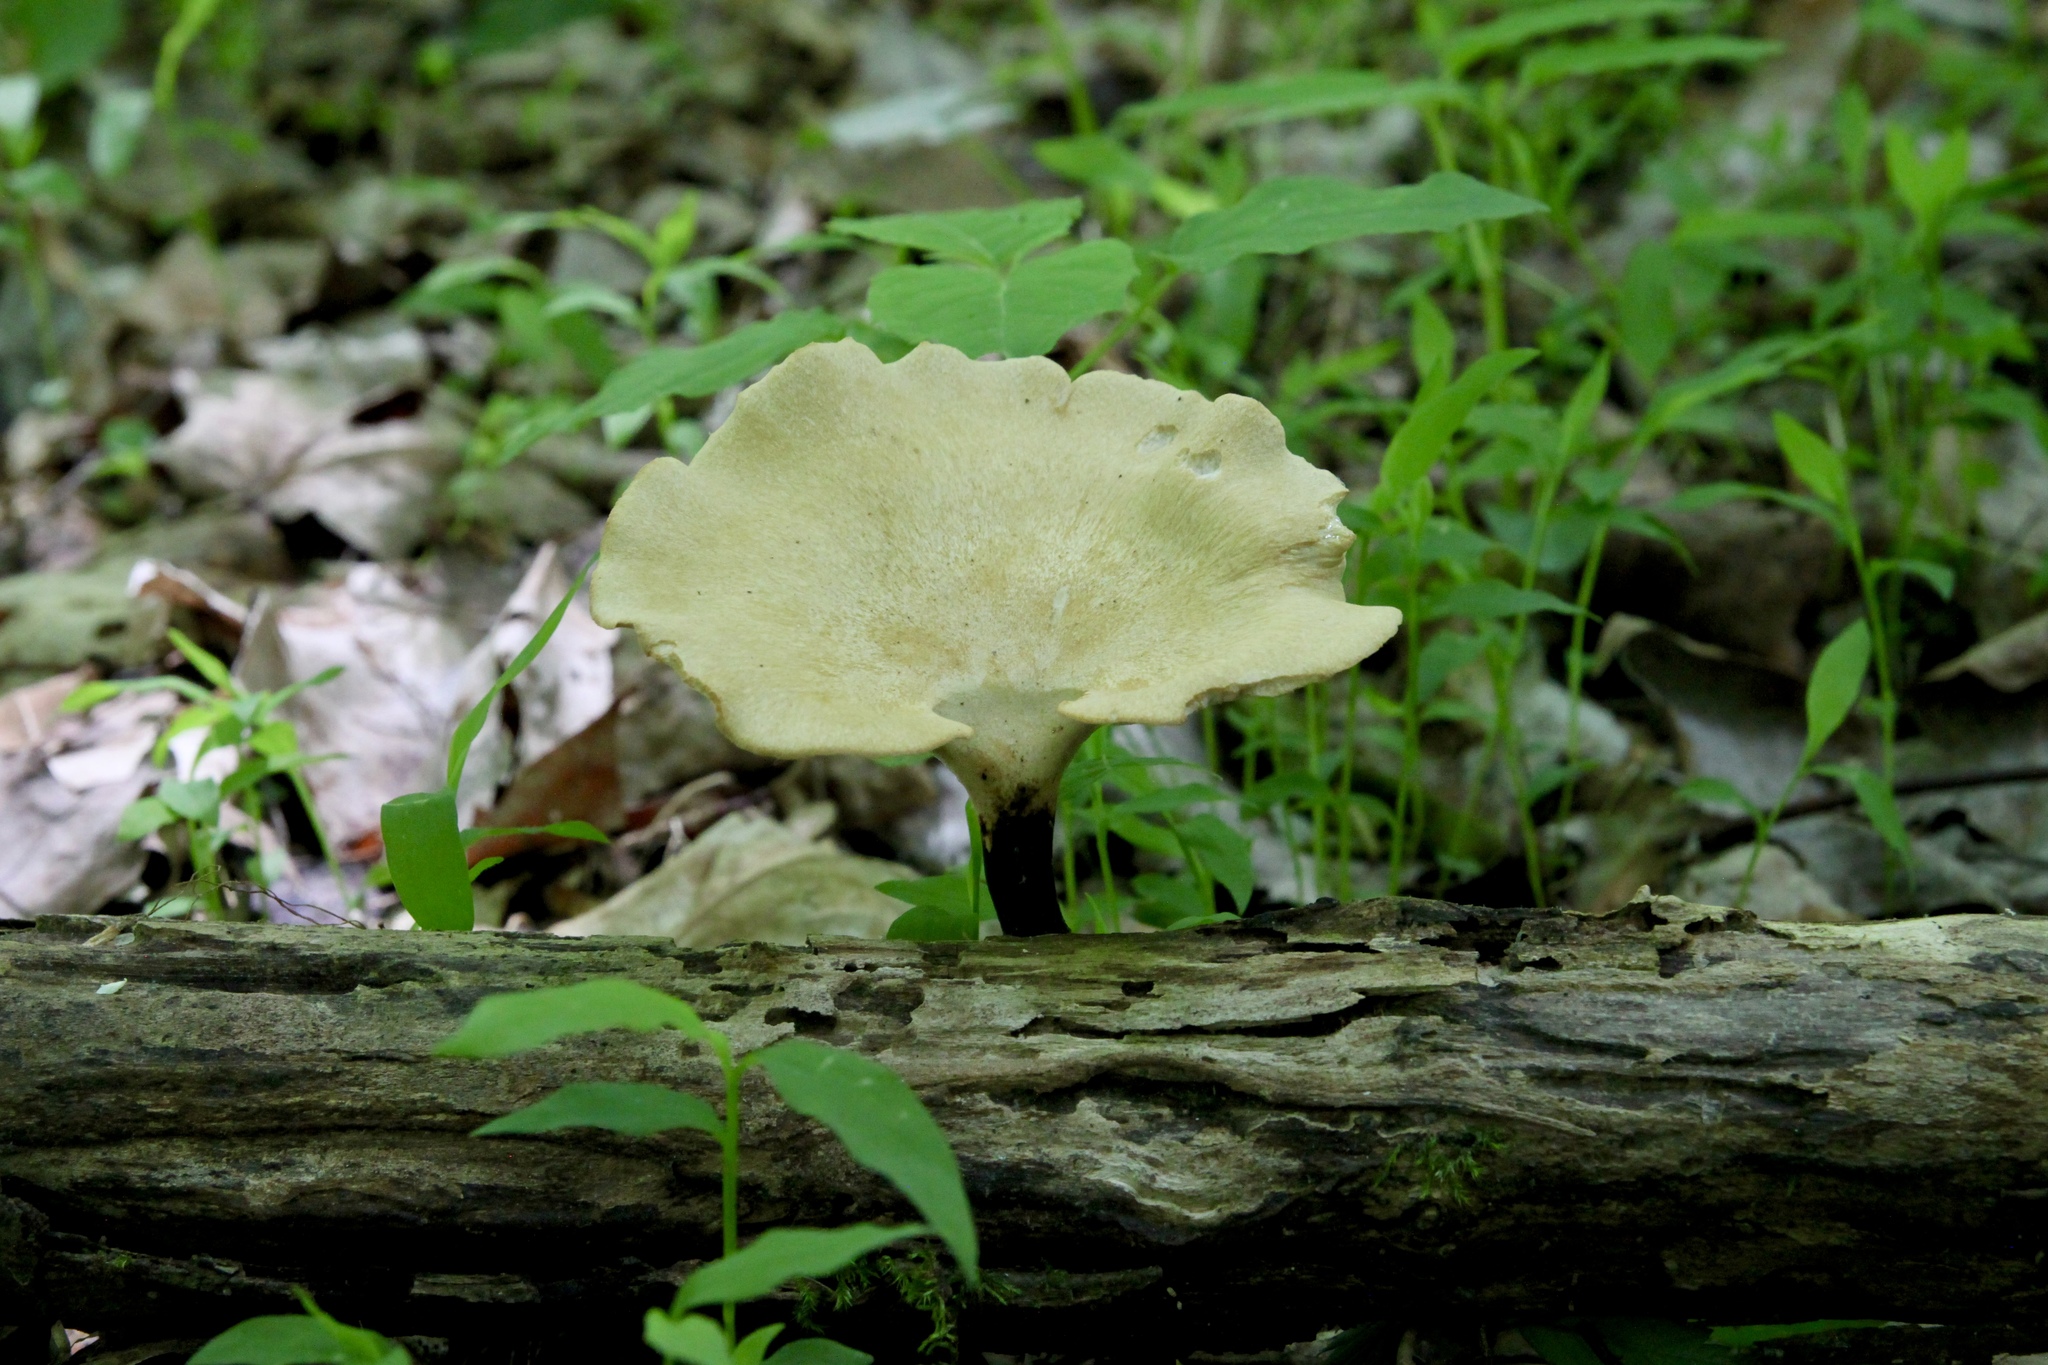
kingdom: Fungi
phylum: Basidiomycota
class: Agaricomycetes
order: Polyporales
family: Polyporaceae
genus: Cerioporus
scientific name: Cerioporus varius
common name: Elegant polypore
